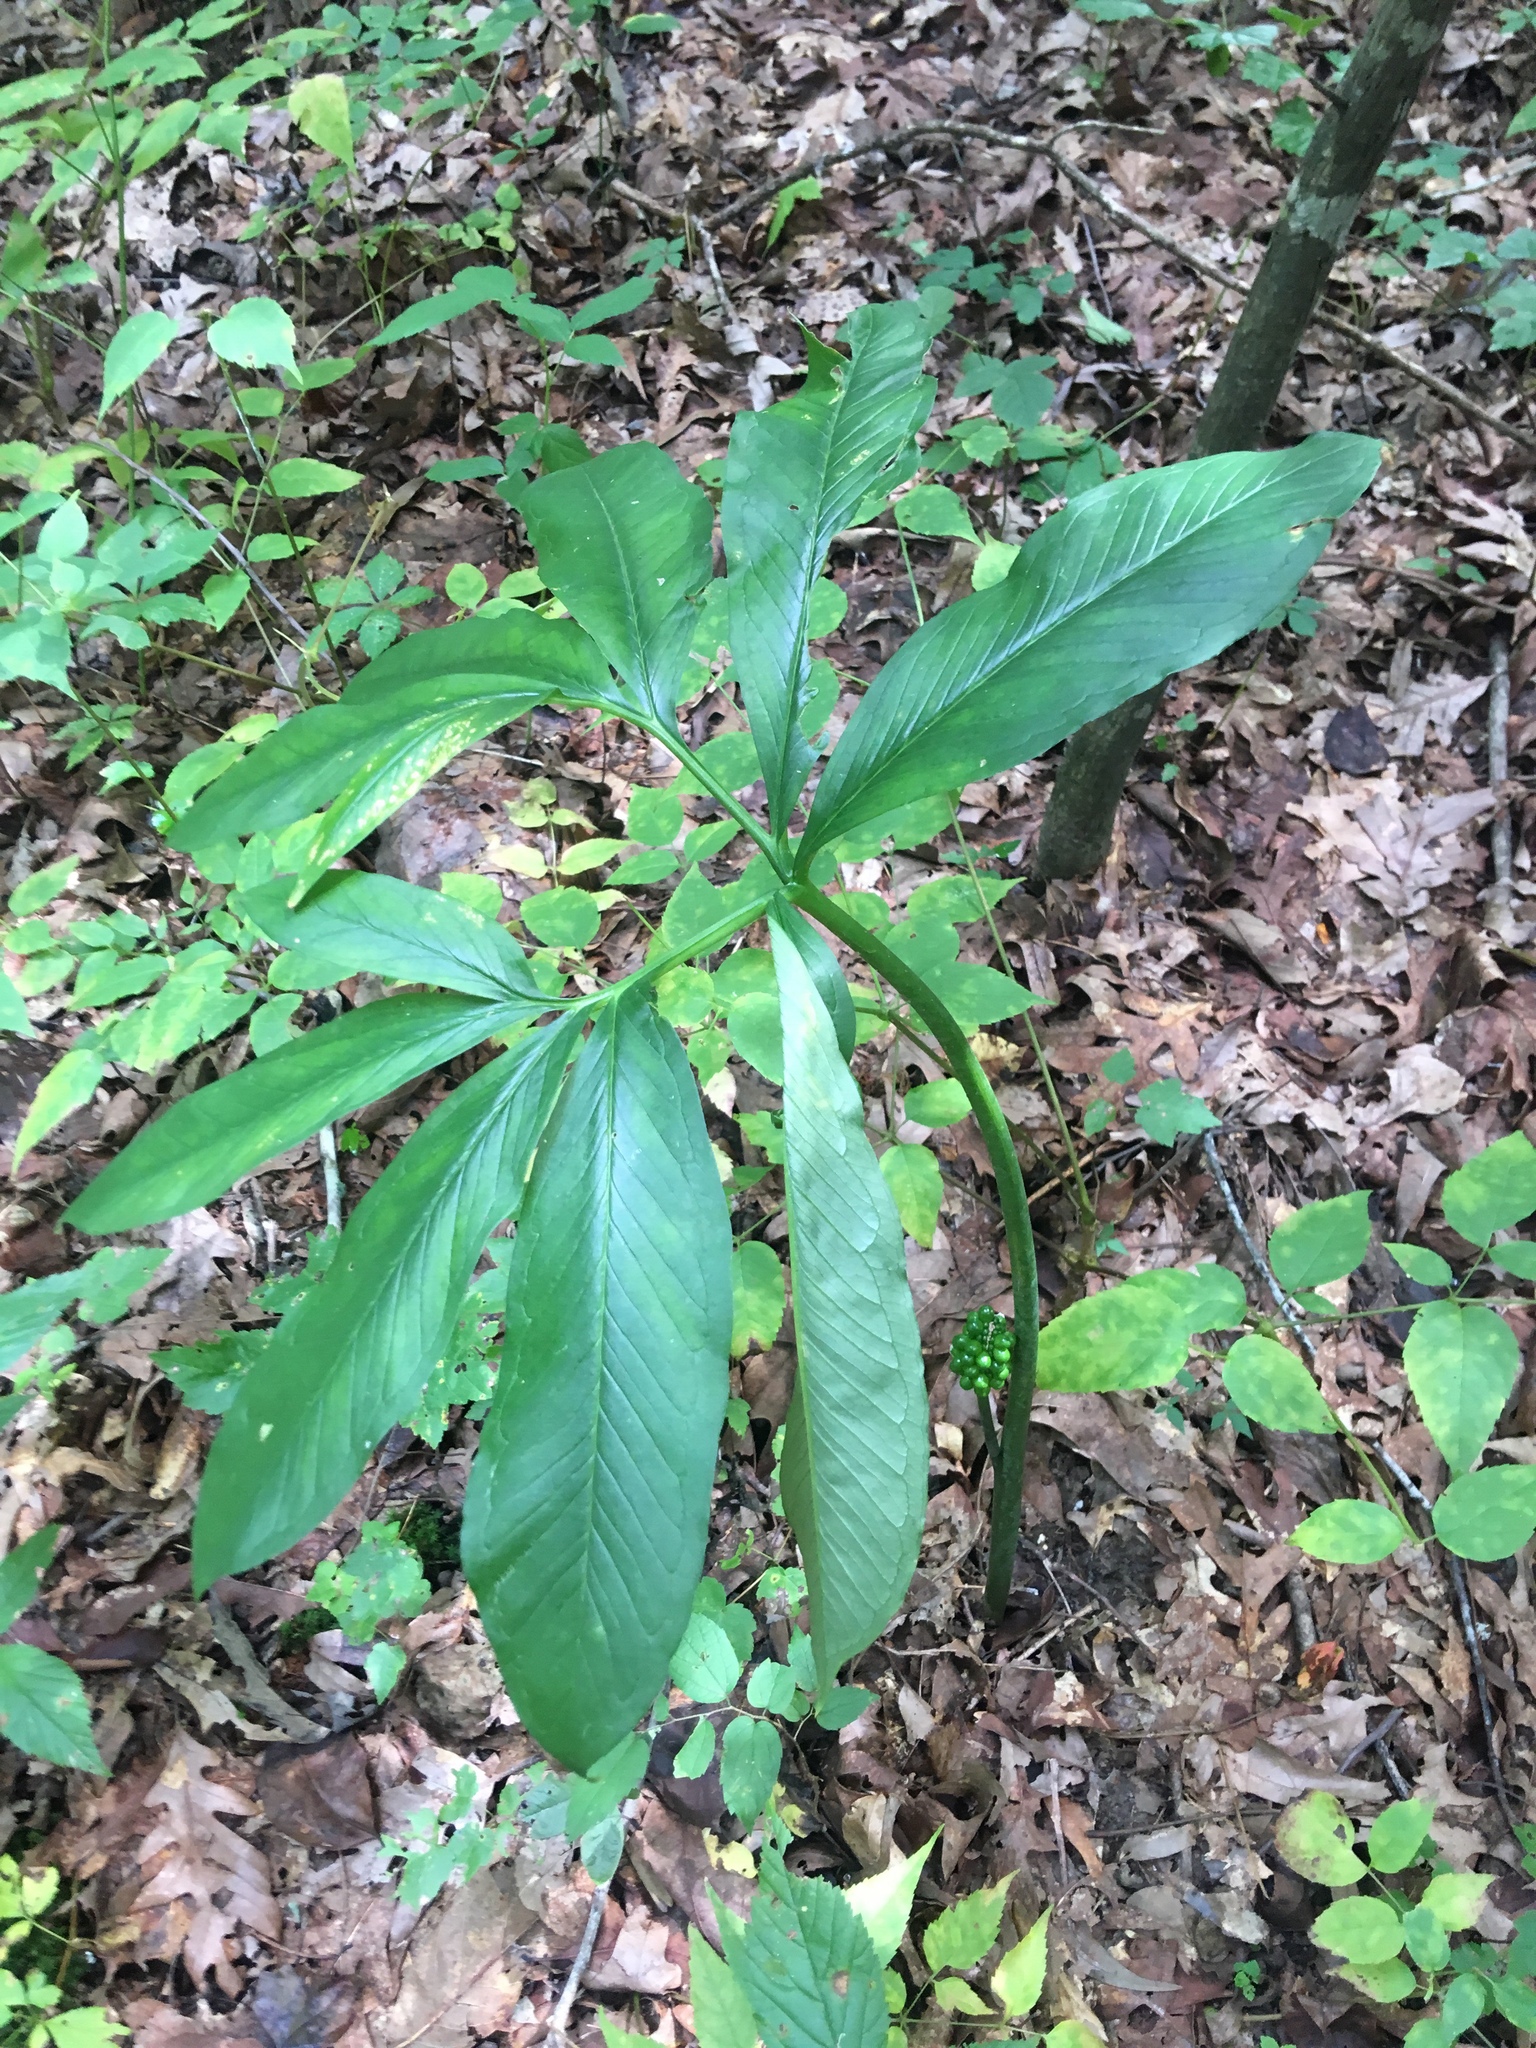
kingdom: Plantae
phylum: Tracheophyta
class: Liliopsida
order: Alismatales
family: Araceae
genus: Arisaema
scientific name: Arisaema dracontium
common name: Dragon-arum
